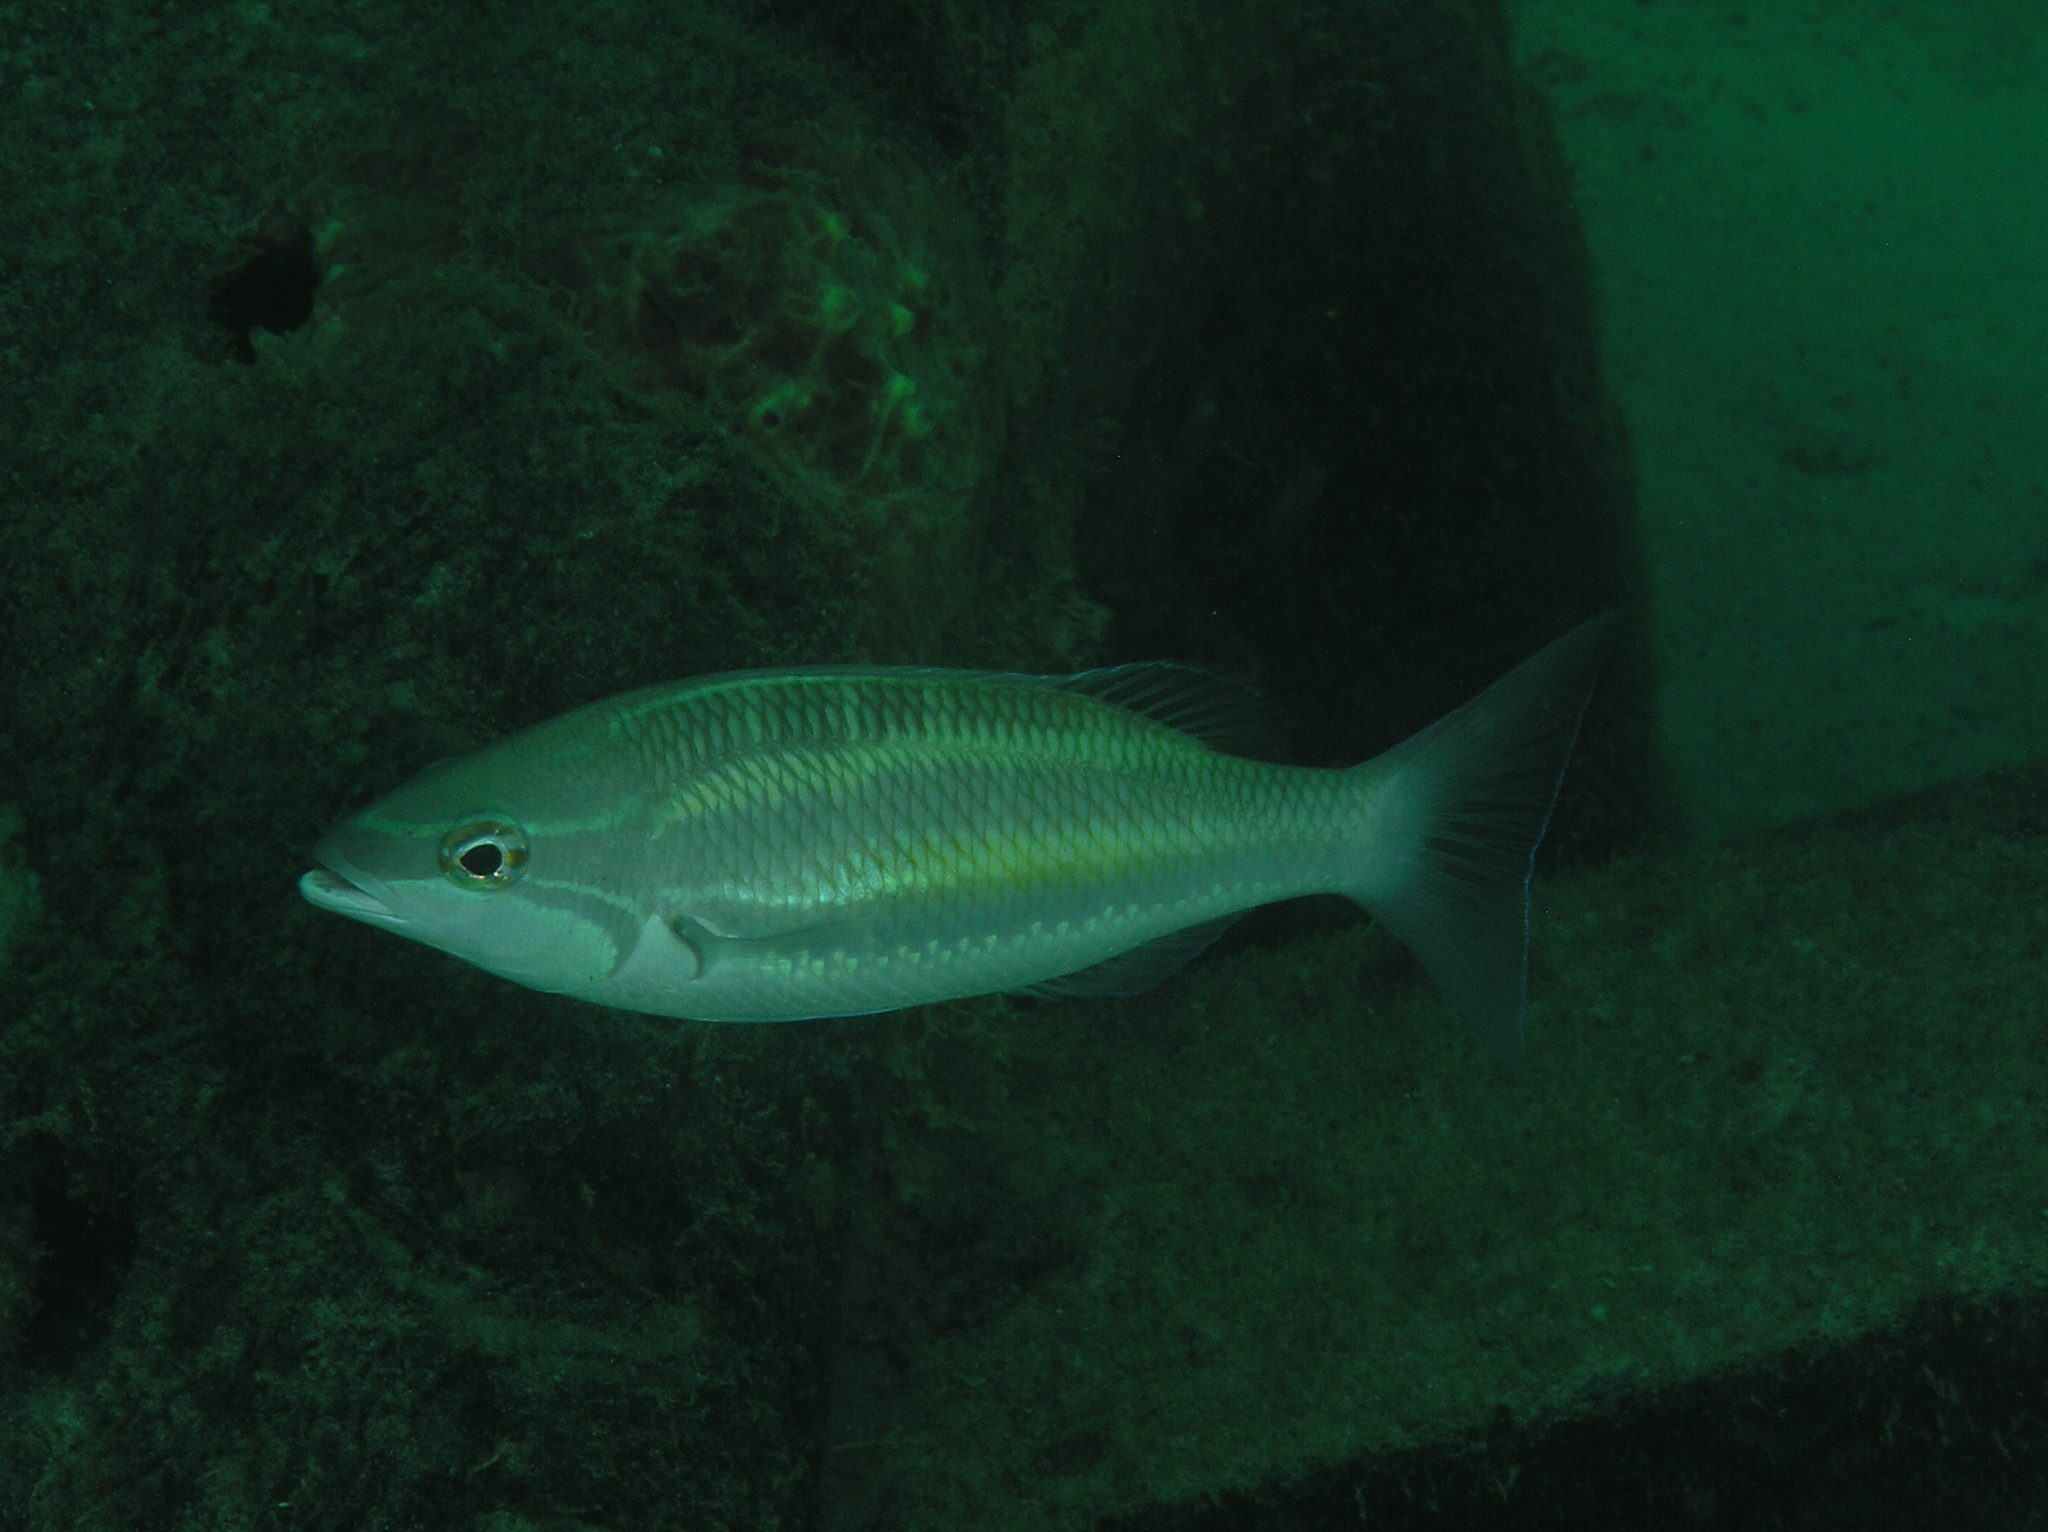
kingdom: Animalia
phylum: Chordata
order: Perciformes
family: Nemipteridae
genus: Pentapodus
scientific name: Pentapodus trivittatus
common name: Three-striped whiptail
